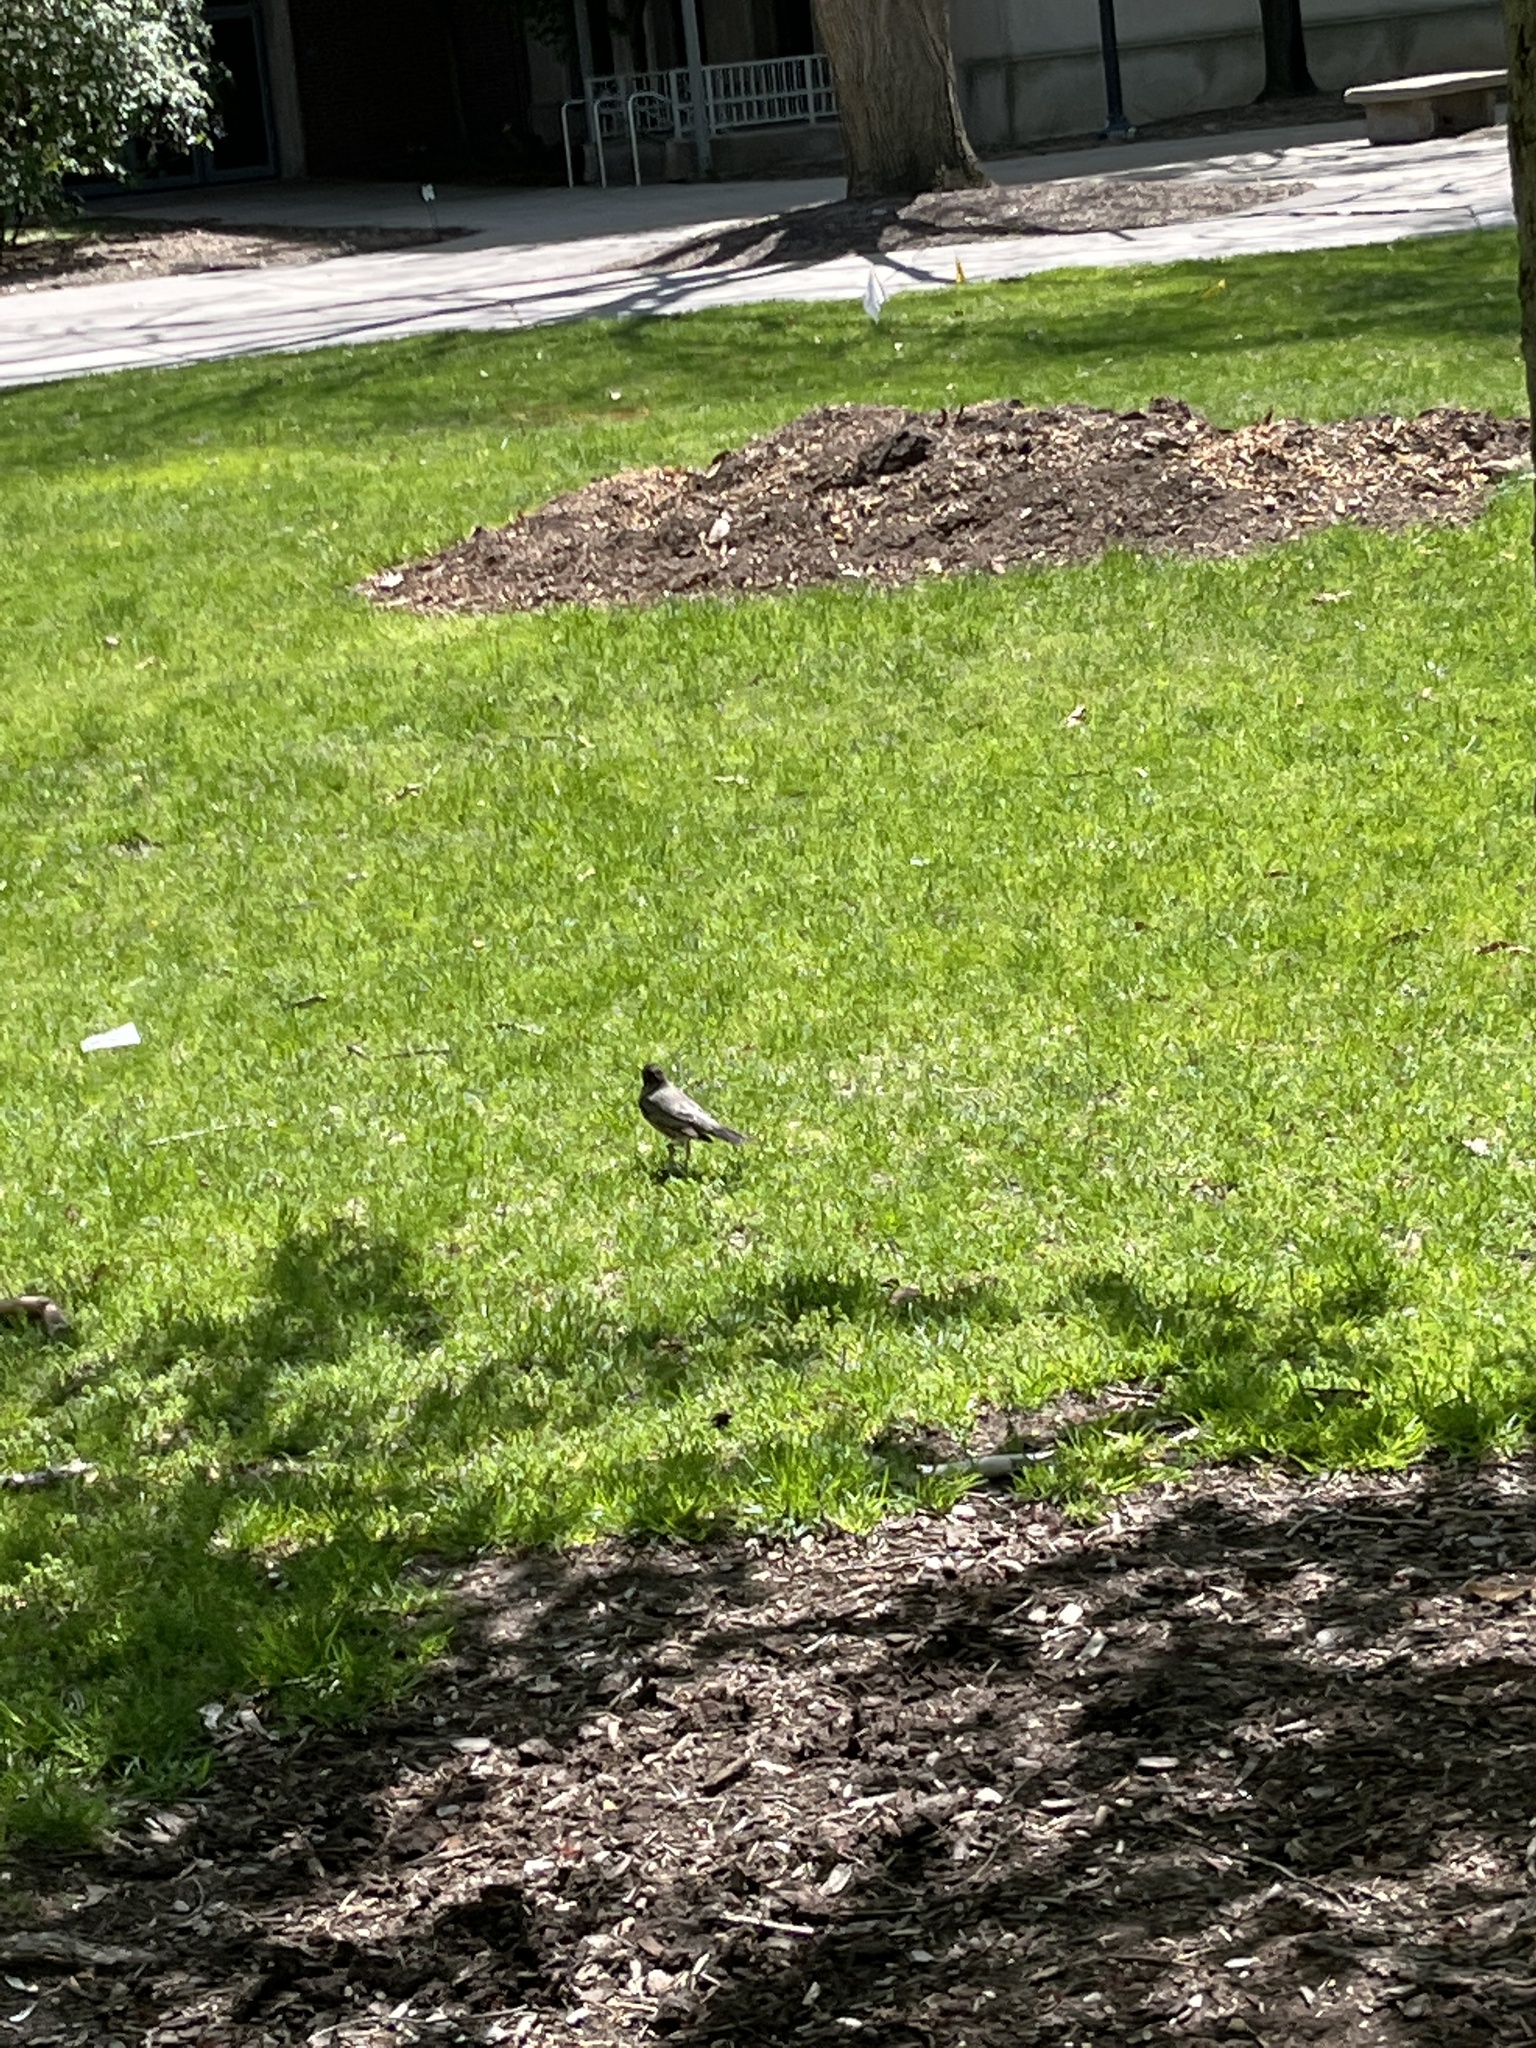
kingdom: Animalia
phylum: Chordata
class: Aves
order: Passeriformes
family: Turdidae
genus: Turdus
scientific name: Turdus migratorius
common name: American robin
